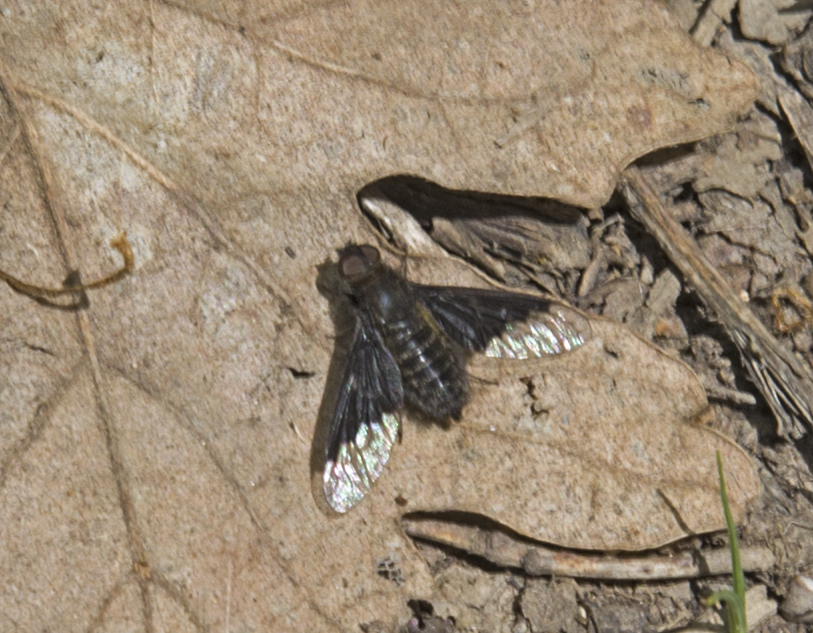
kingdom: Animalia
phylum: Arthropoda
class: Insecta
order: Diptera
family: Bombyliidae
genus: Hemipenthes
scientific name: Hemipenthes morio
